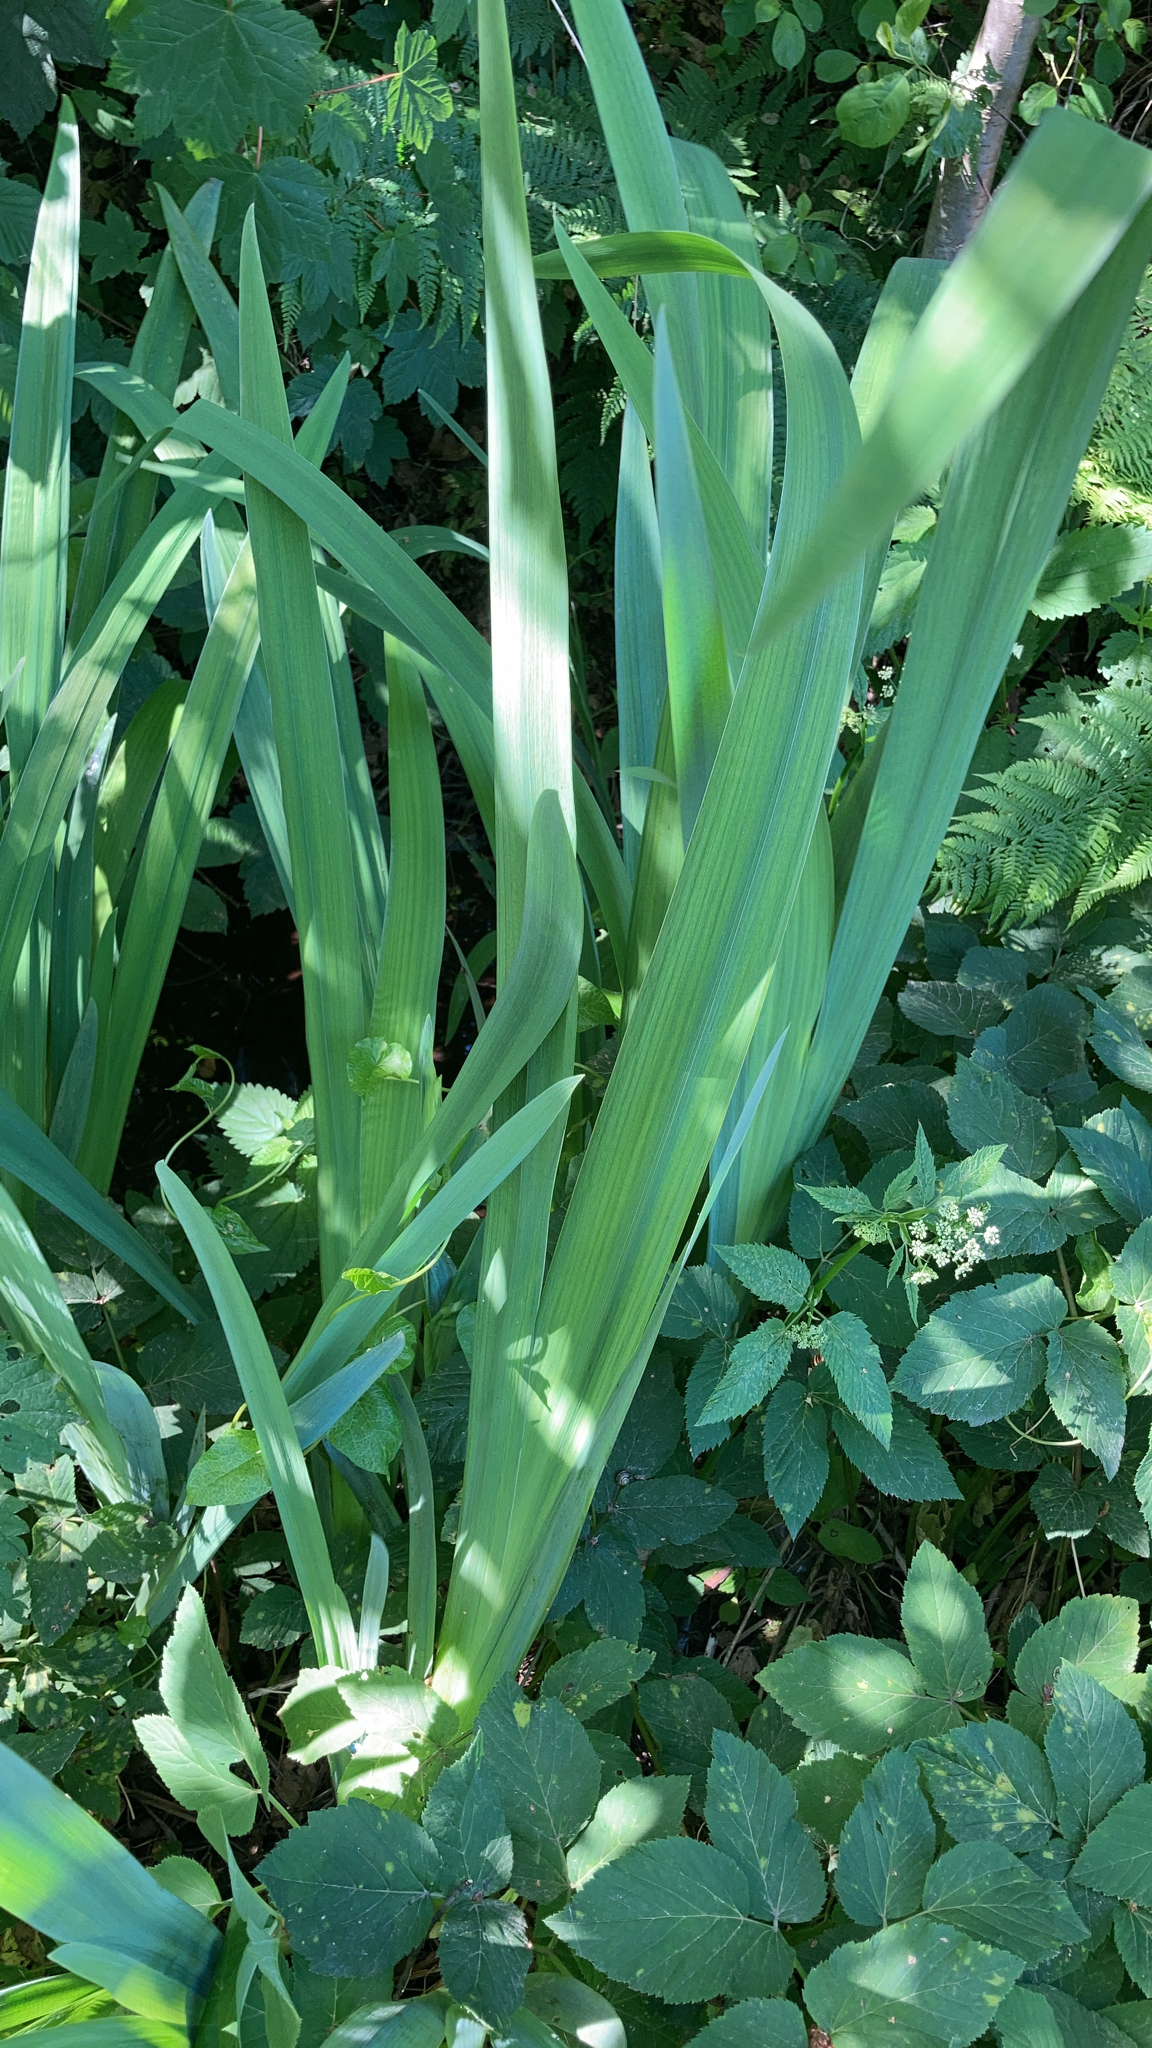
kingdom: Plantae
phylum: Tracheophyta
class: Liliopsida
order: Asparagales
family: Iridaceae
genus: Iris
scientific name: Iris pseudacorus
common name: Yellow flag
